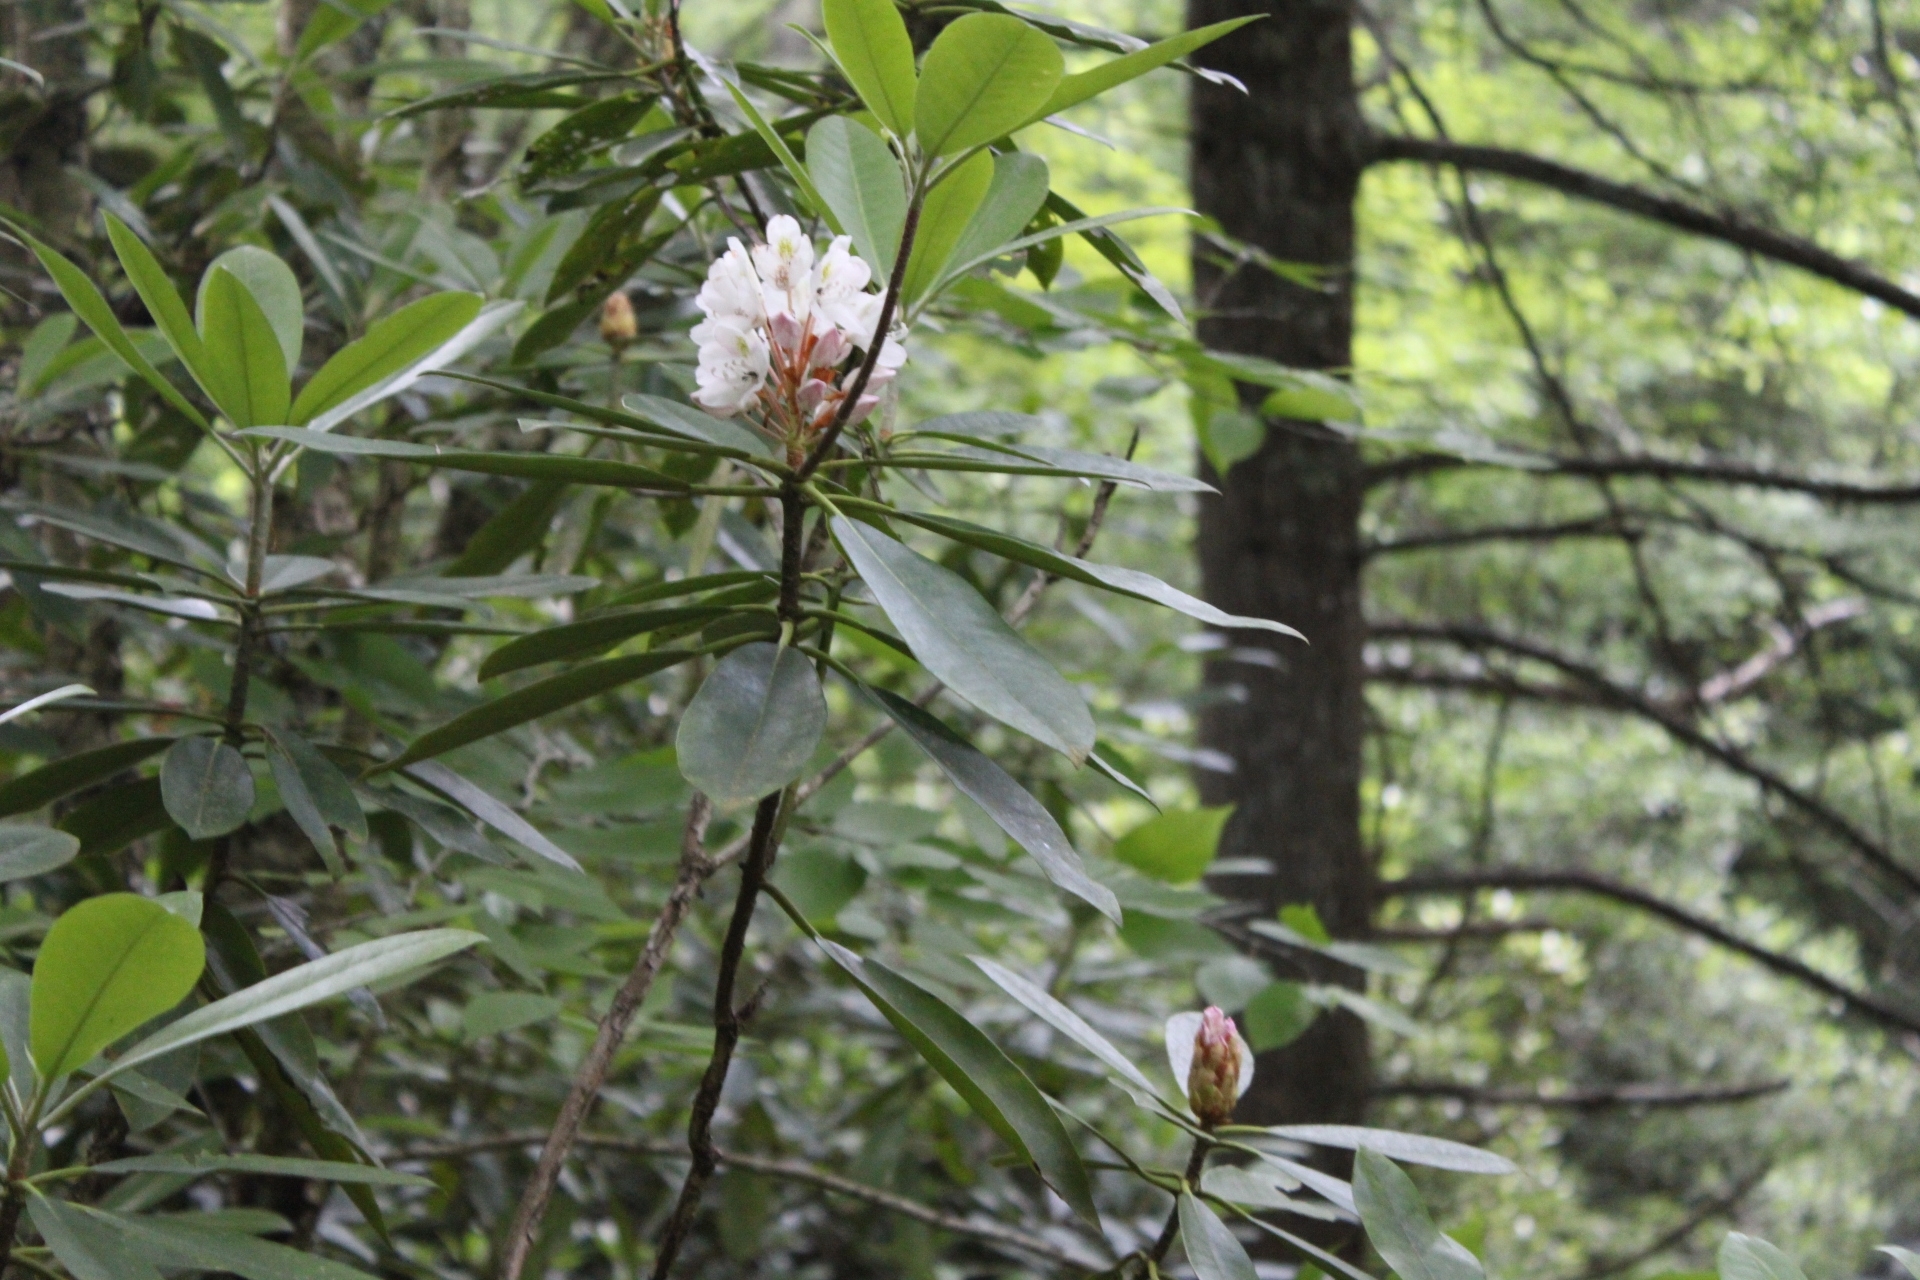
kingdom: Plantae
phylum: Tracheophyta
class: Magnoliopsida
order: Ericales
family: Ericaceae
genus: Rhododendron
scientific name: Rhododendron maximum
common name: Great rhododendron
